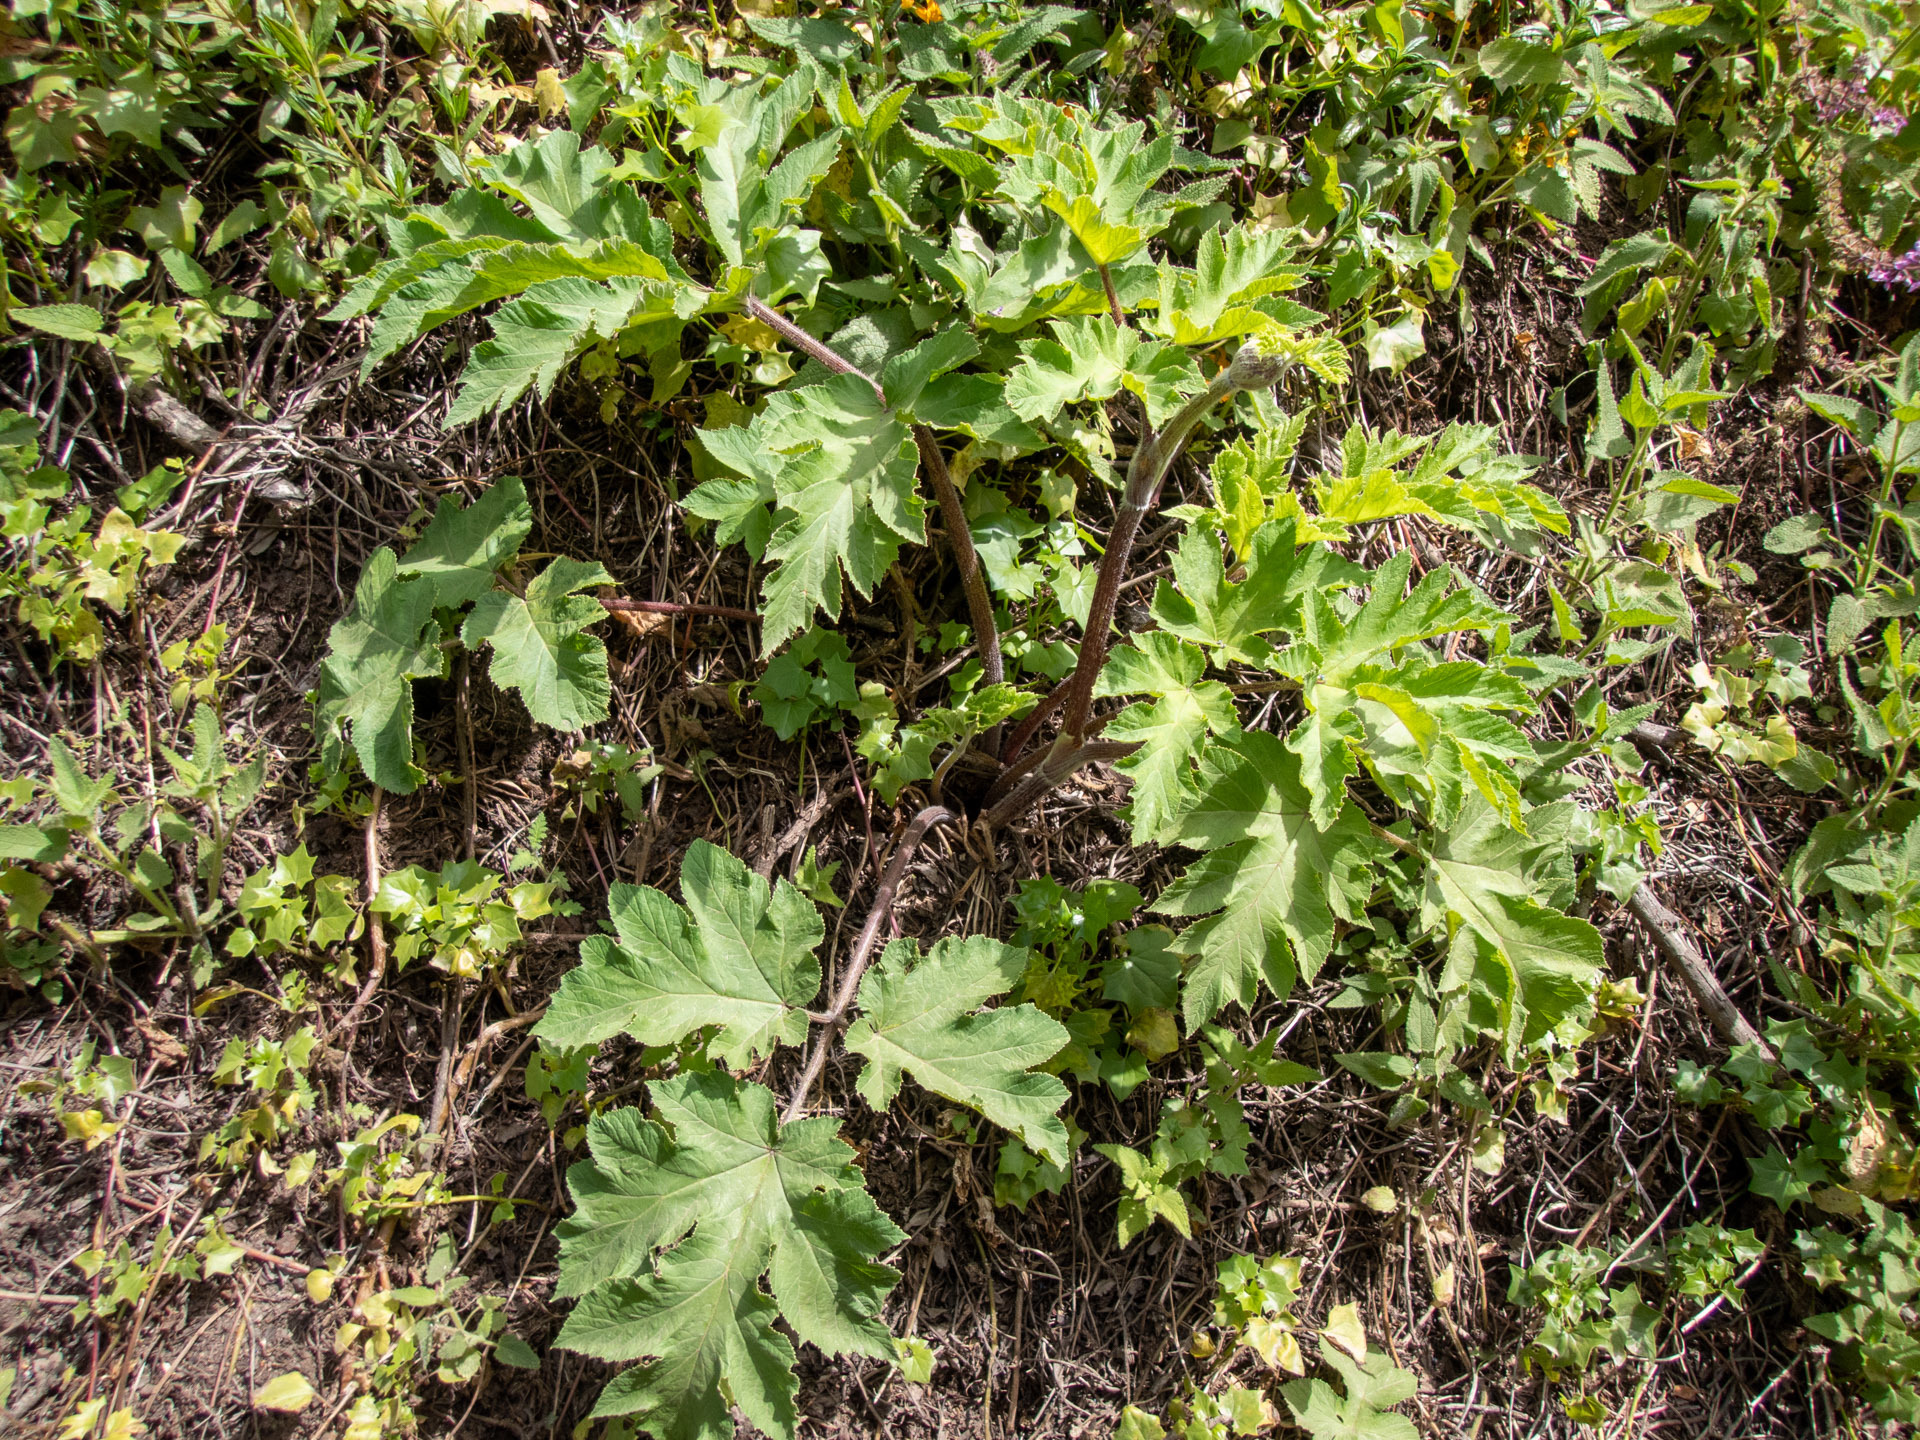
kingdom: Plantae
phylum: Tracheophyta
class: Magnoliopsida
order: Apiales
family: Apiaceae
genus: Heracleum
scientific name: Heracleum maximum
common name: American cow parsnip
